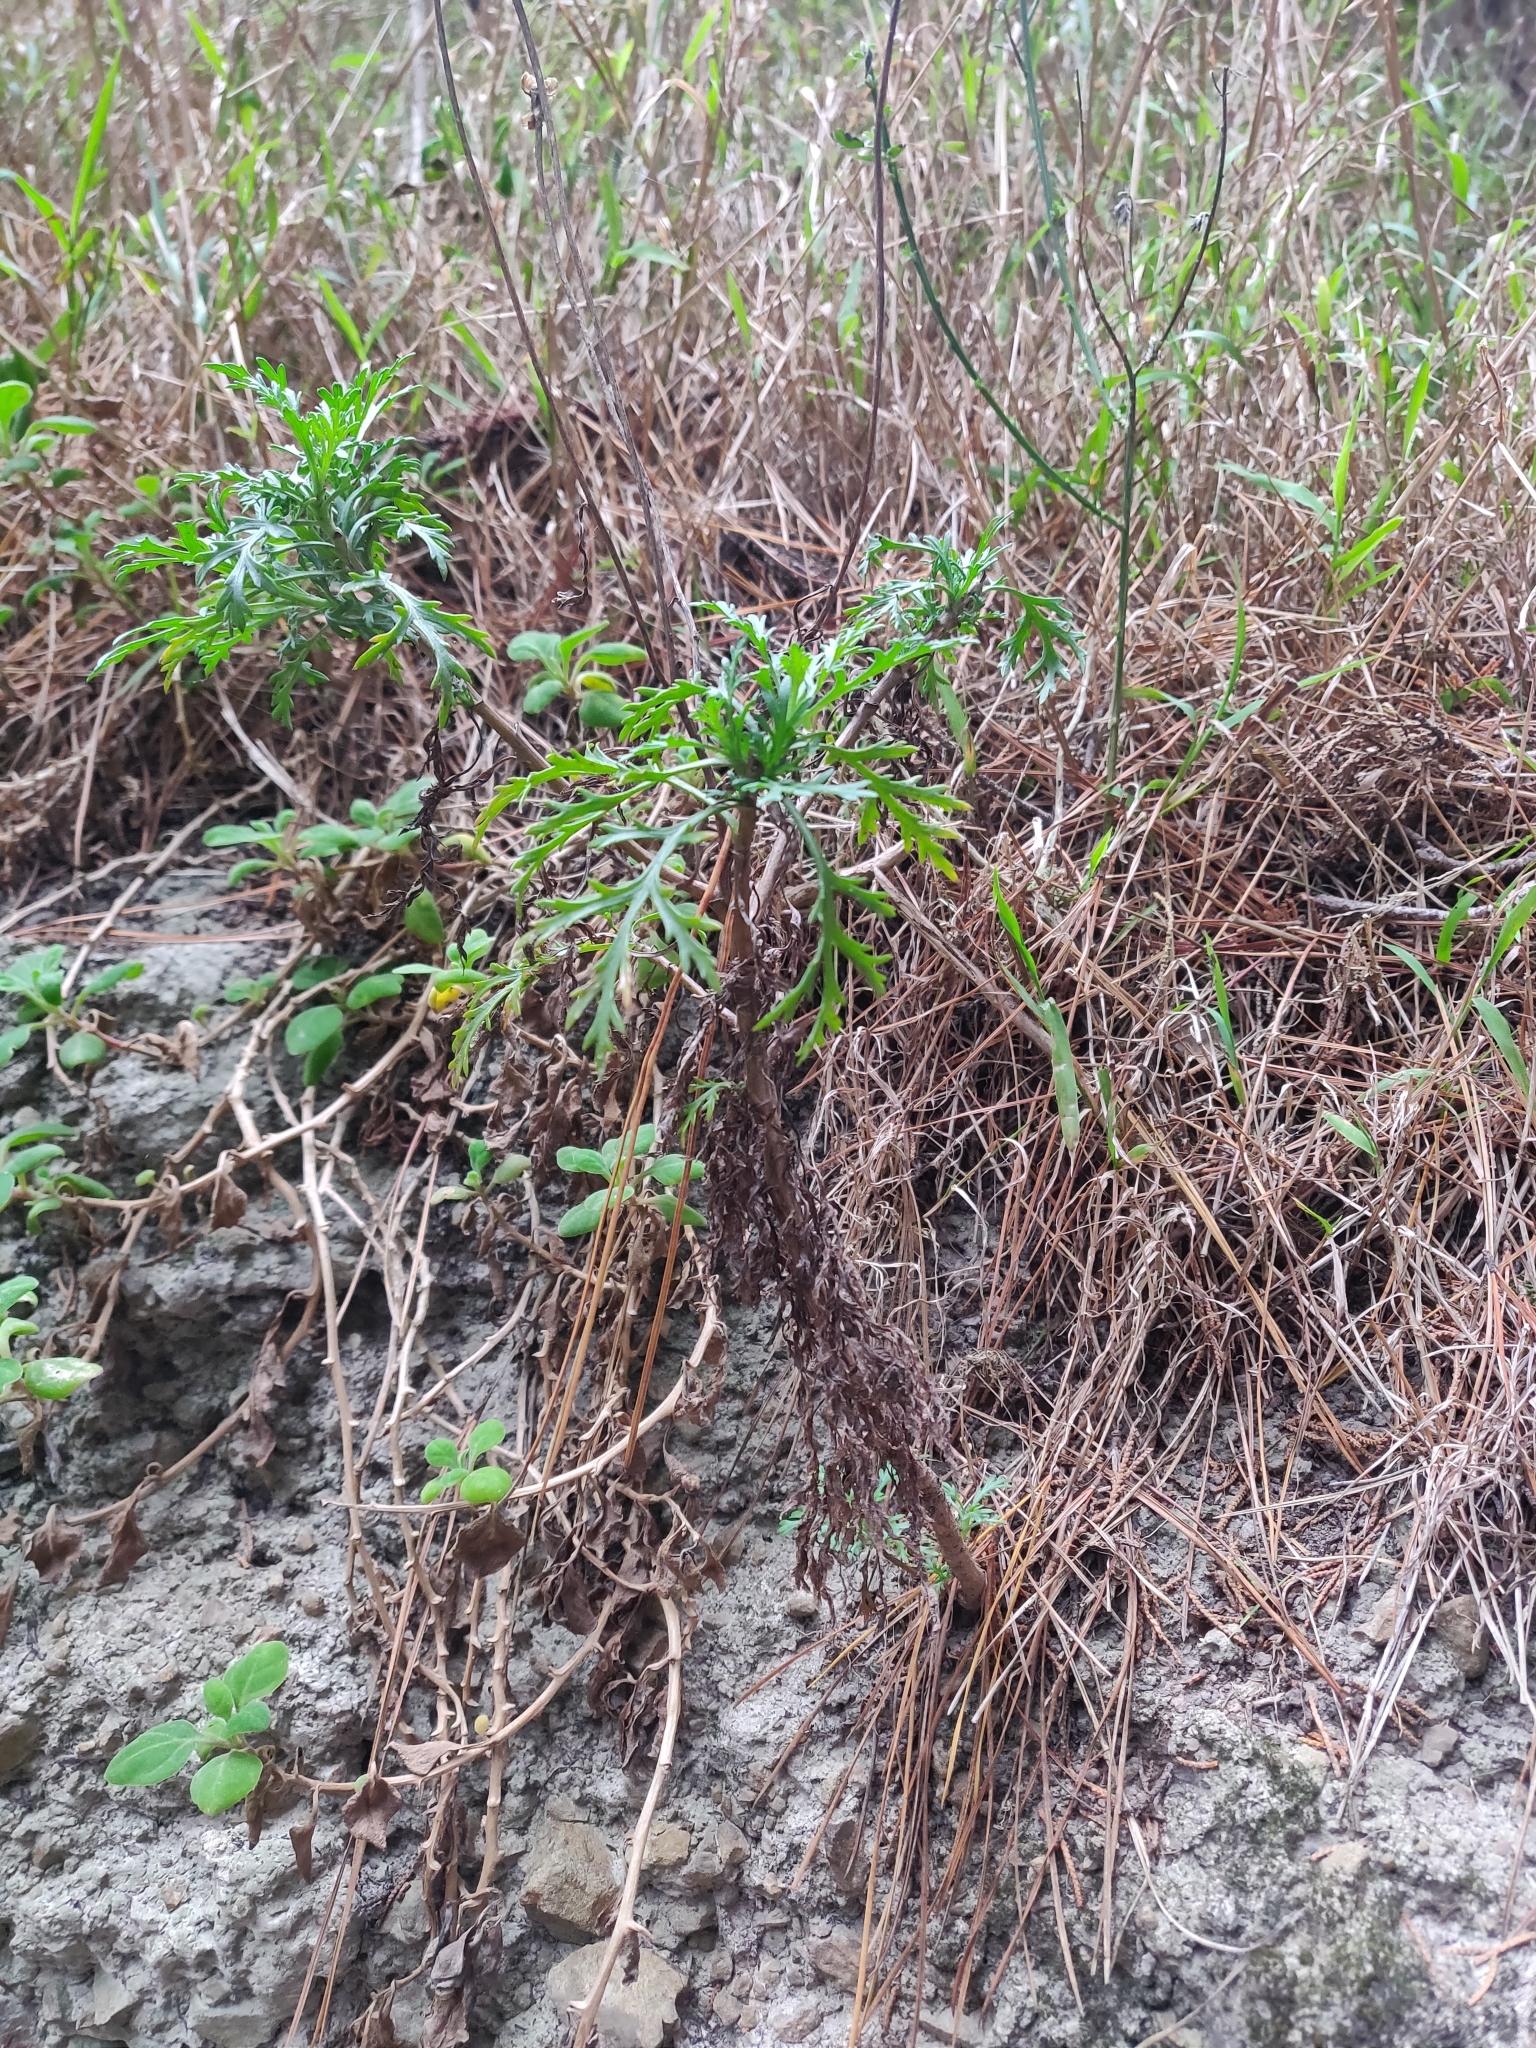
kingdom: Plantae
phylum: Tracheophyta
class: Magnoliopsida
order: Asterales
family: Asteraceae
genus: Argyranthemum
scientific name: Argyranthemum frutescens
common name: Paris daisy
